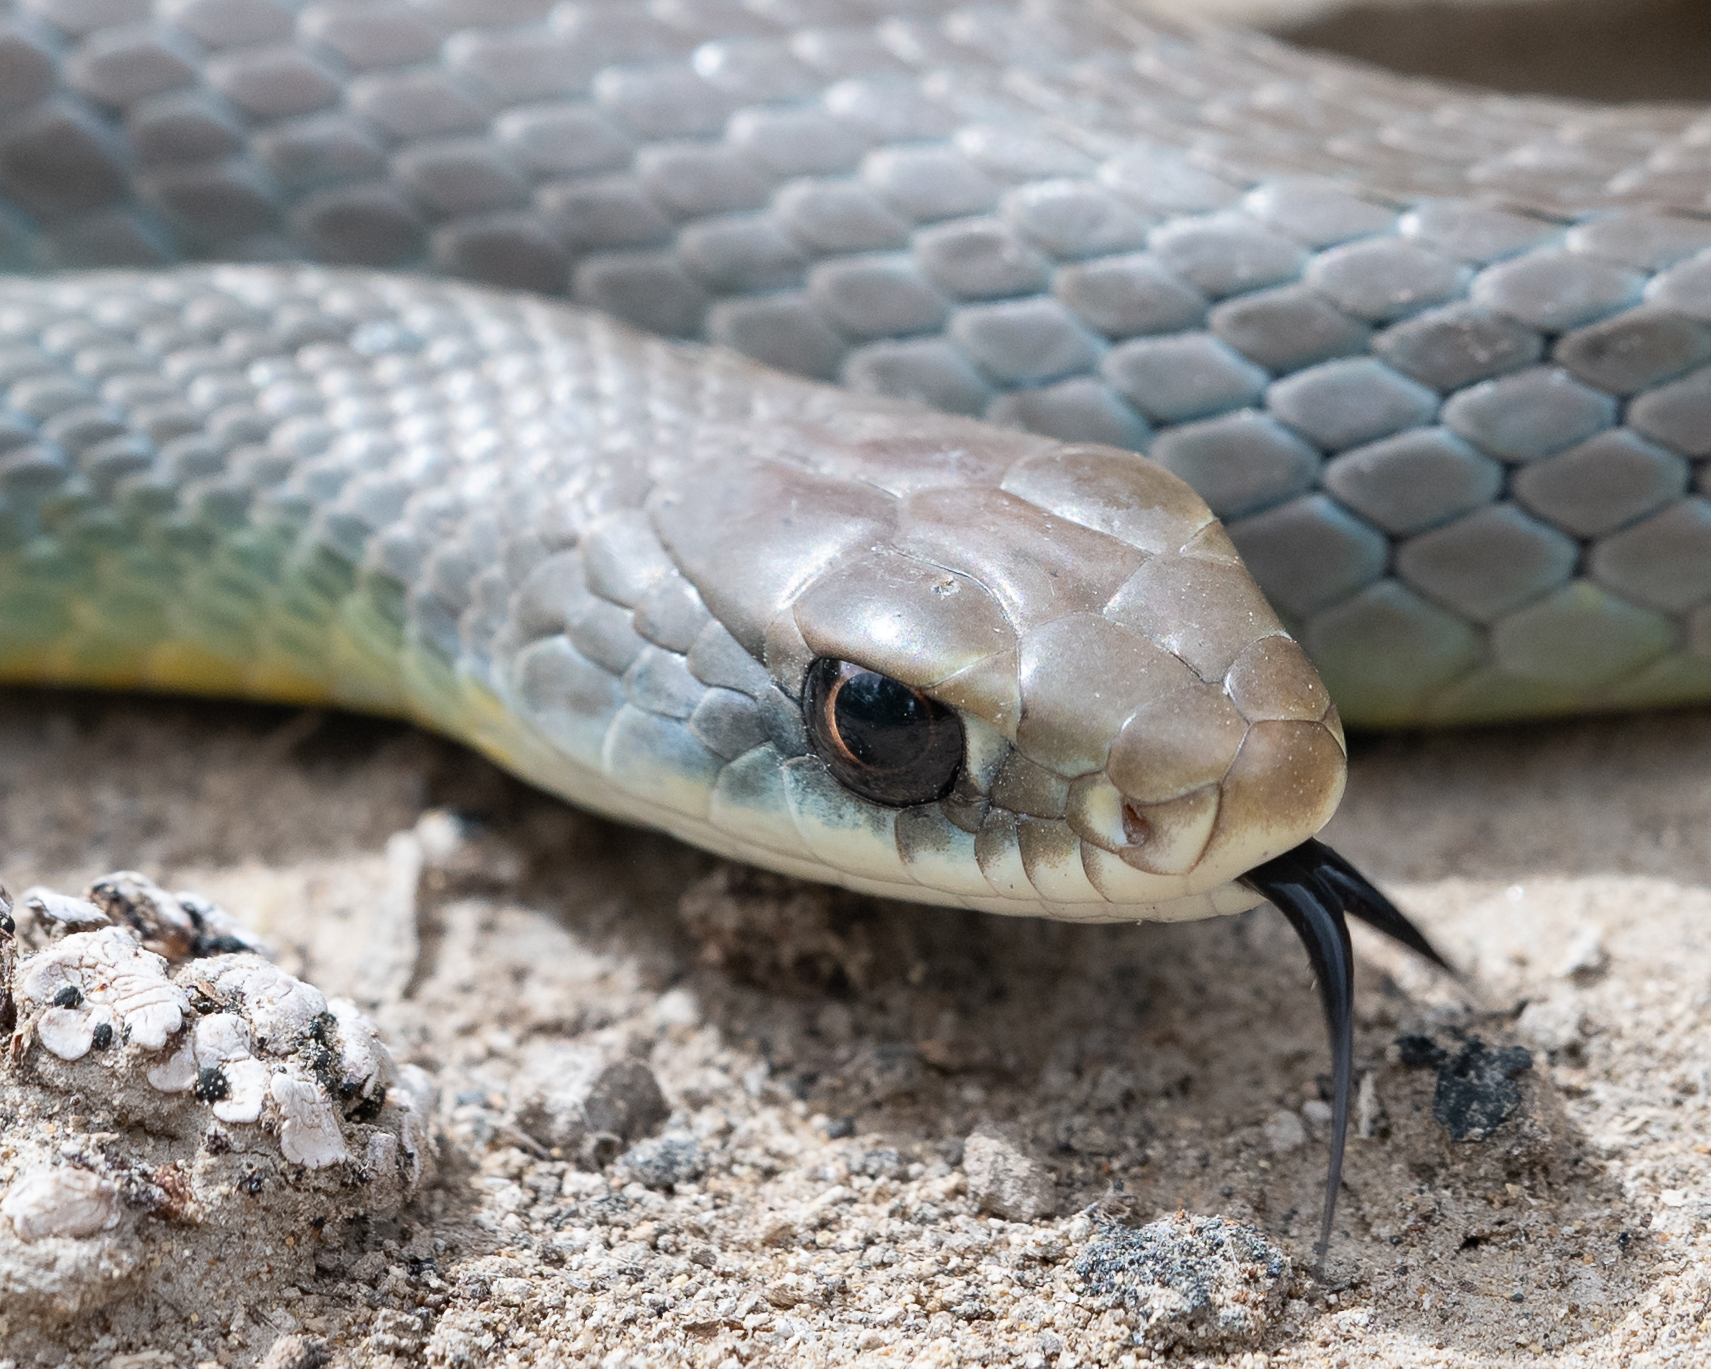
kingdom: Animalia
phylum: Chordata
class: Squamata
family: Colubridae
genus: Coluber
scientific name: Coluber constrictor
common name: Eastern racer
